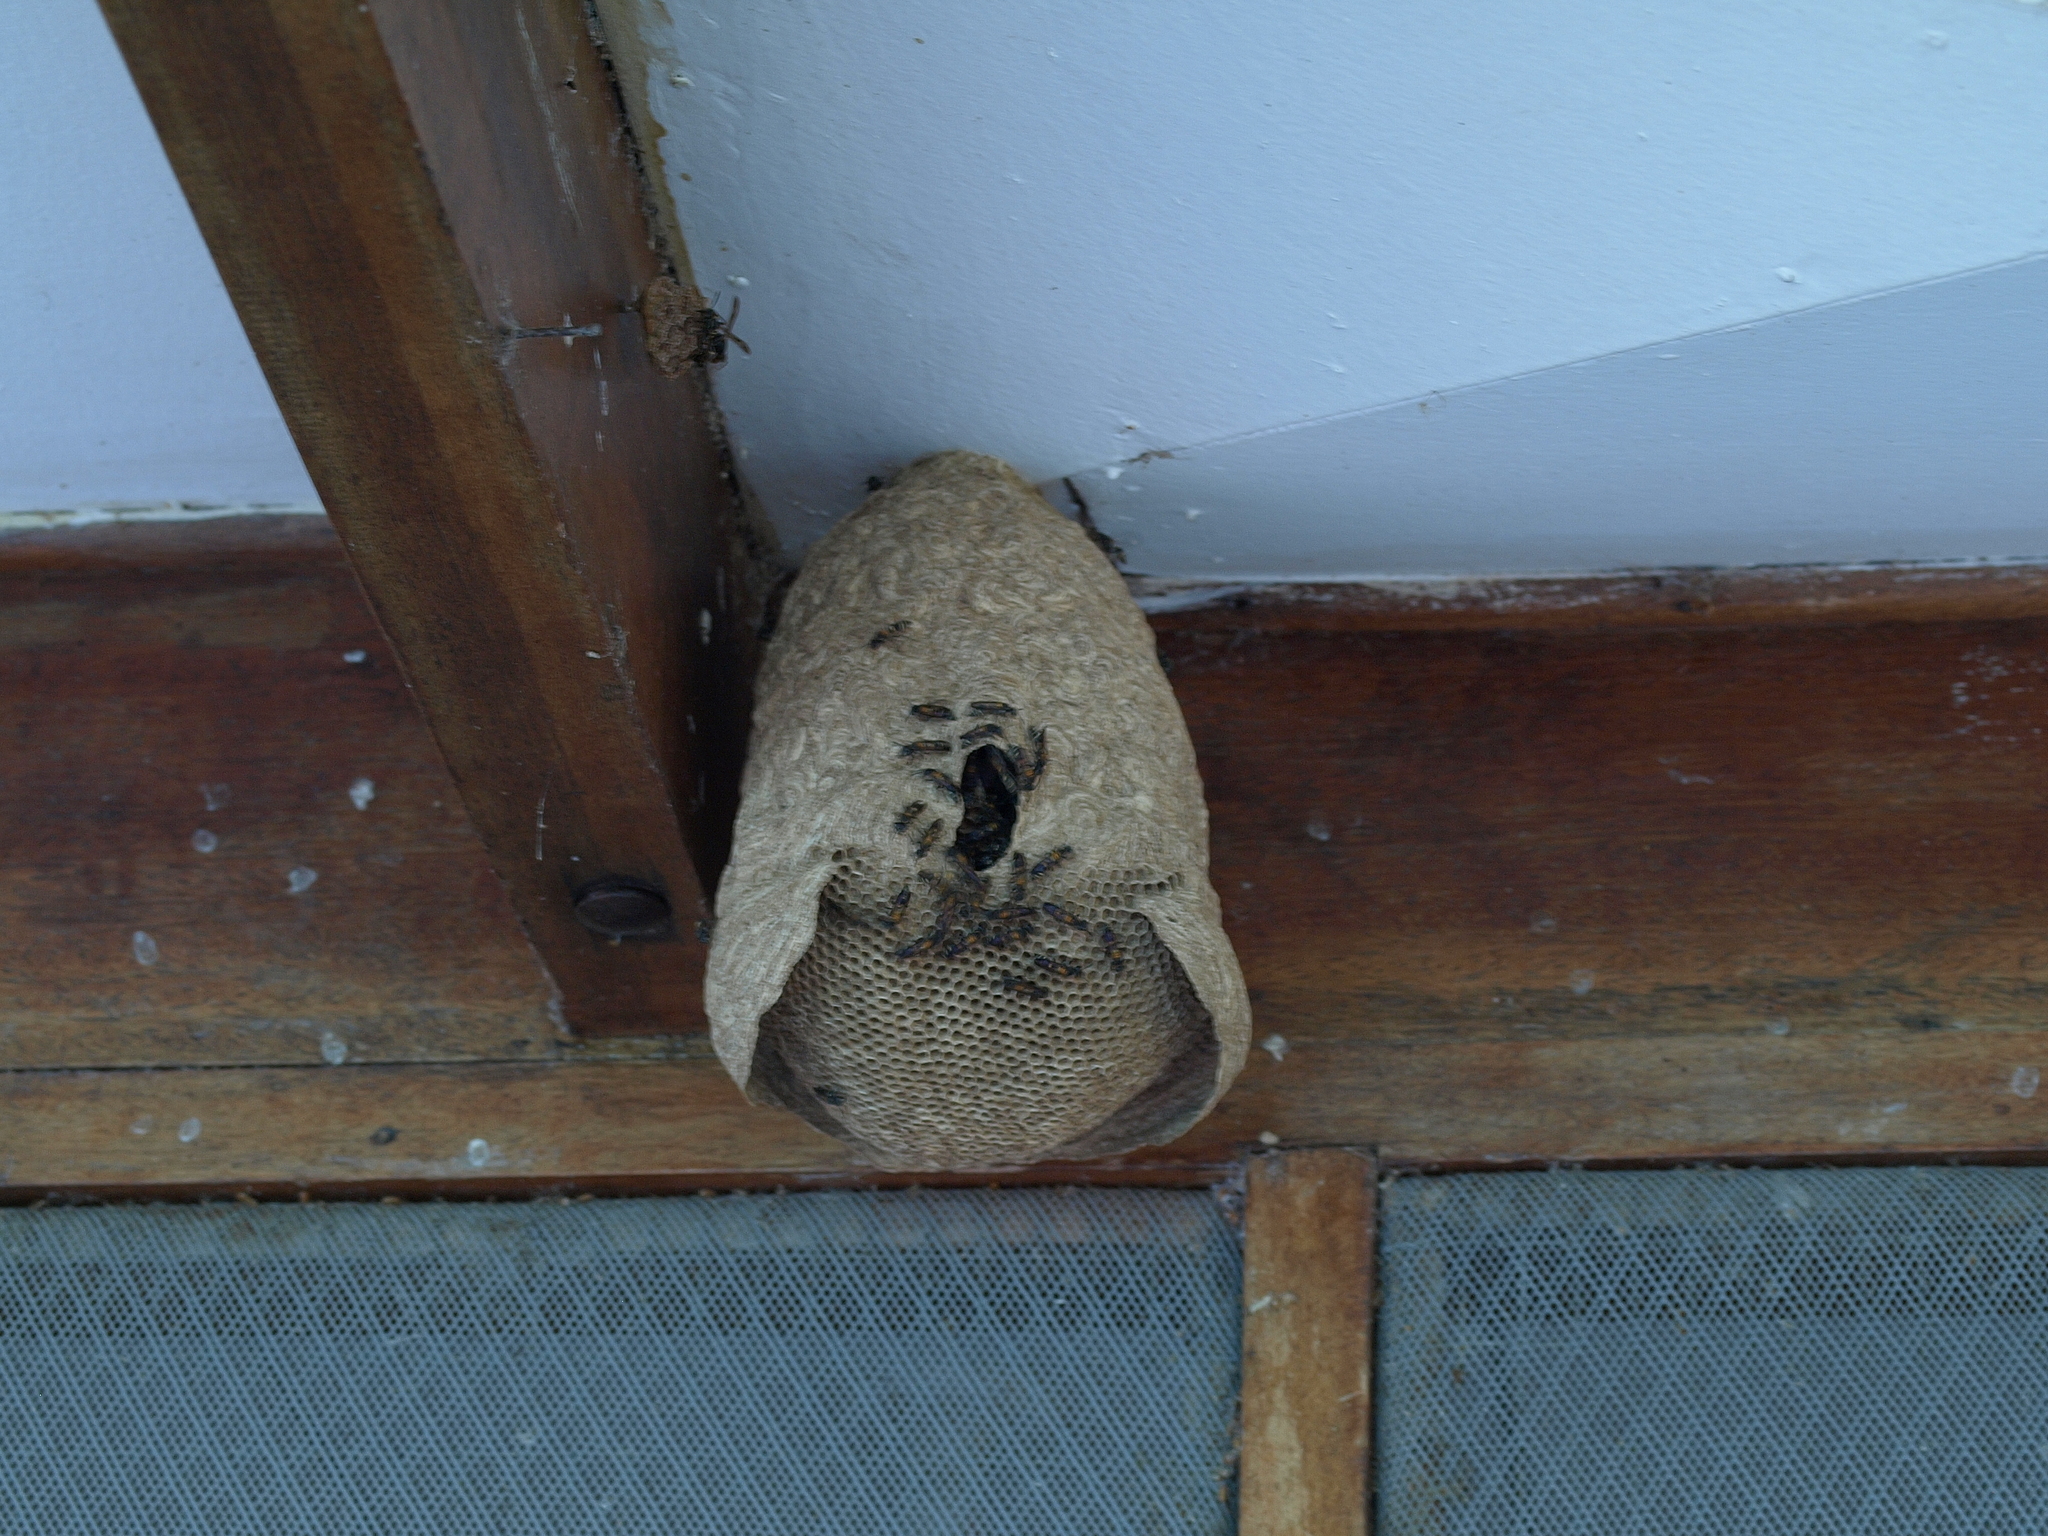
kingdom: Animalia
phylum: Arthropoda
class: Insecta
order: Hymenoptera
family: Eumenidae
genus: Polybia
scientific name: Polybia occidentalis
